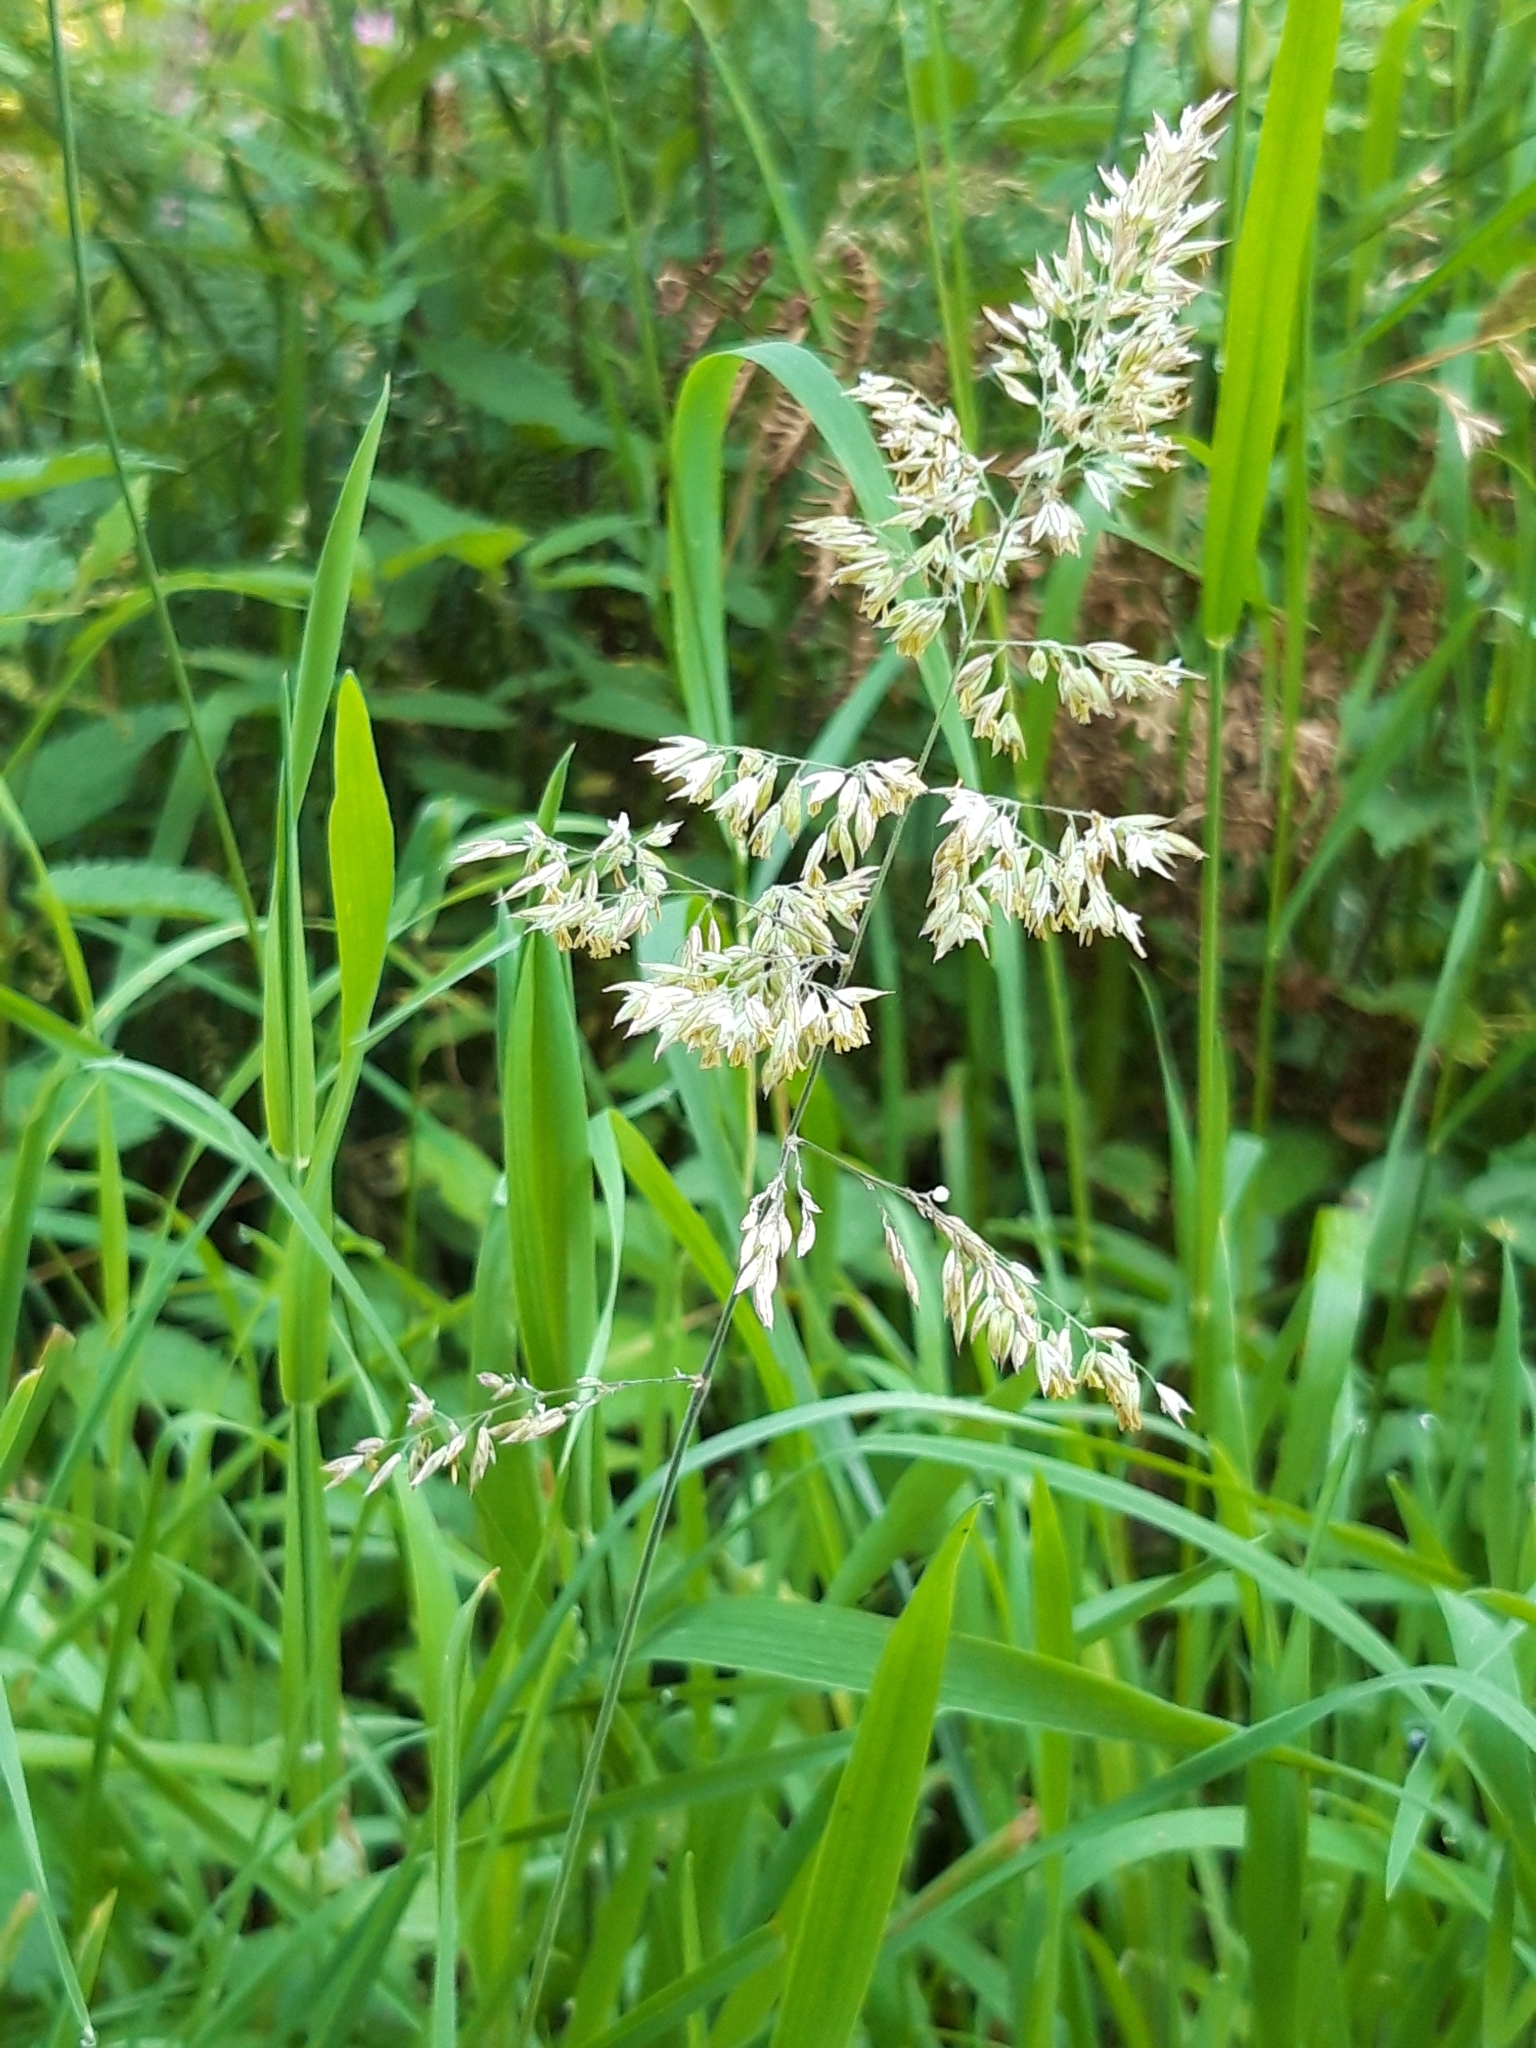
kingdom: Plantae
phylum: Tracheophyta
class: Liliopsida
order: Poales
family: Poaceae
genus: Holcus
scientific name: Holcus lanatus
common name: Yorkshire-fog
